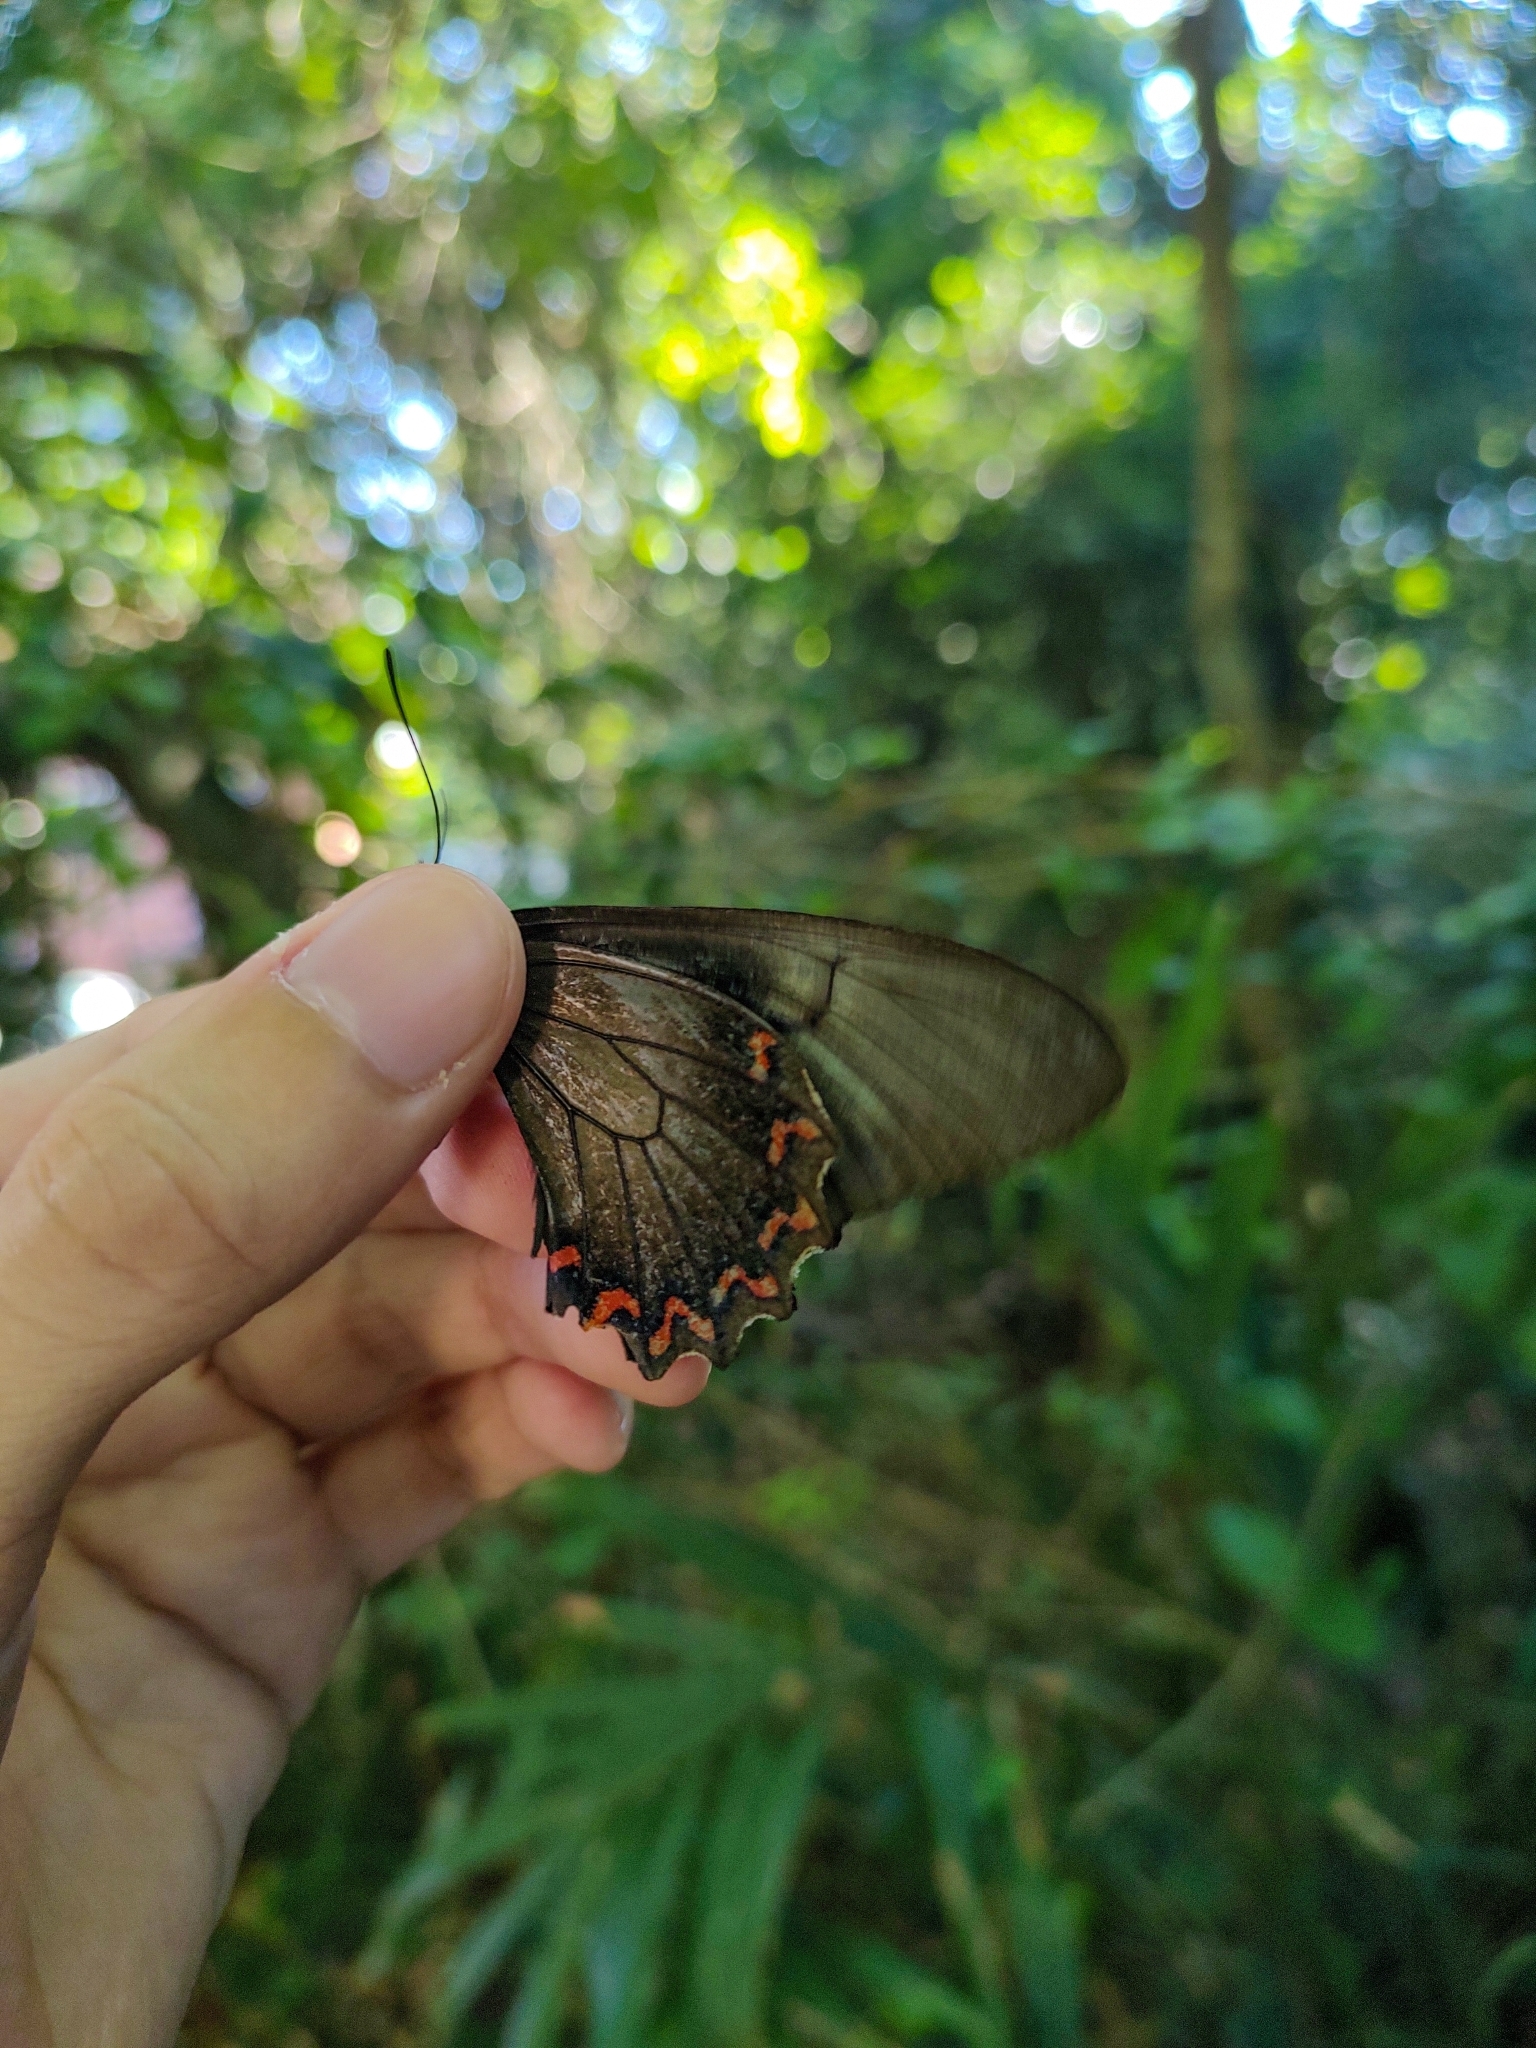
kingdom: Animalia
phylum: Arthropoda
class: Insecta
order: Lepidoptera
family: Papilionidae
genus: Battus
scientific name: Battus polystictus
